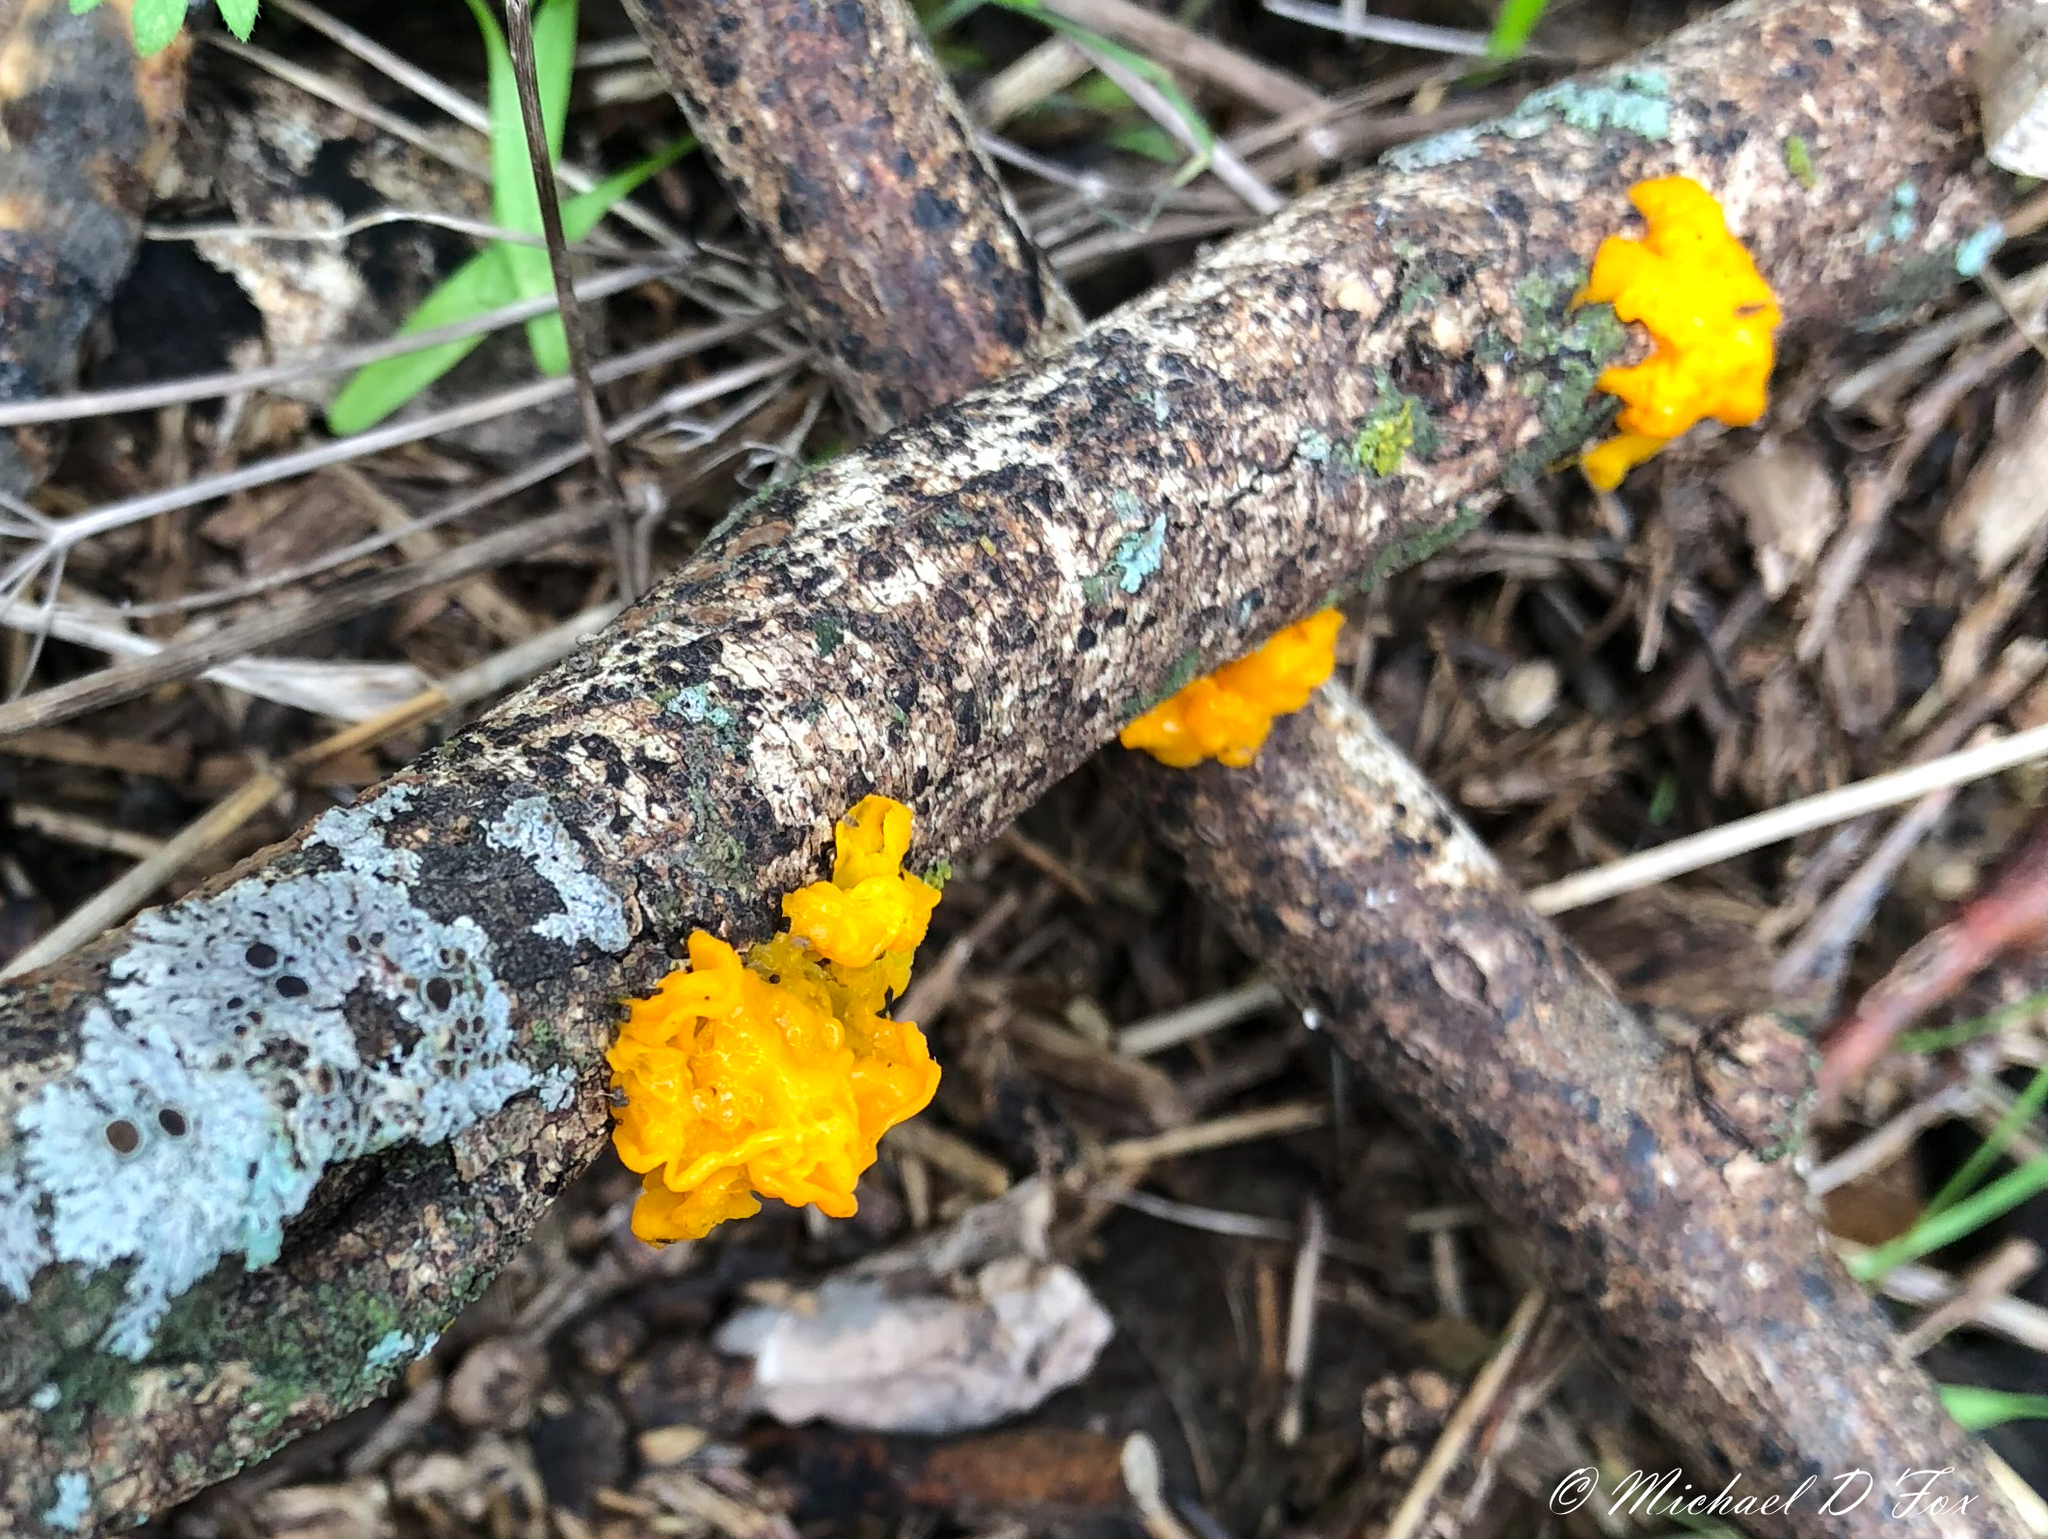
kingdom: Fungi
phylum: Basidiomycota
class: Tremellomycetes
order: Tremellales
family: Tremellaceae
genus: Tremella
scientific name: Tremella mesenterica
